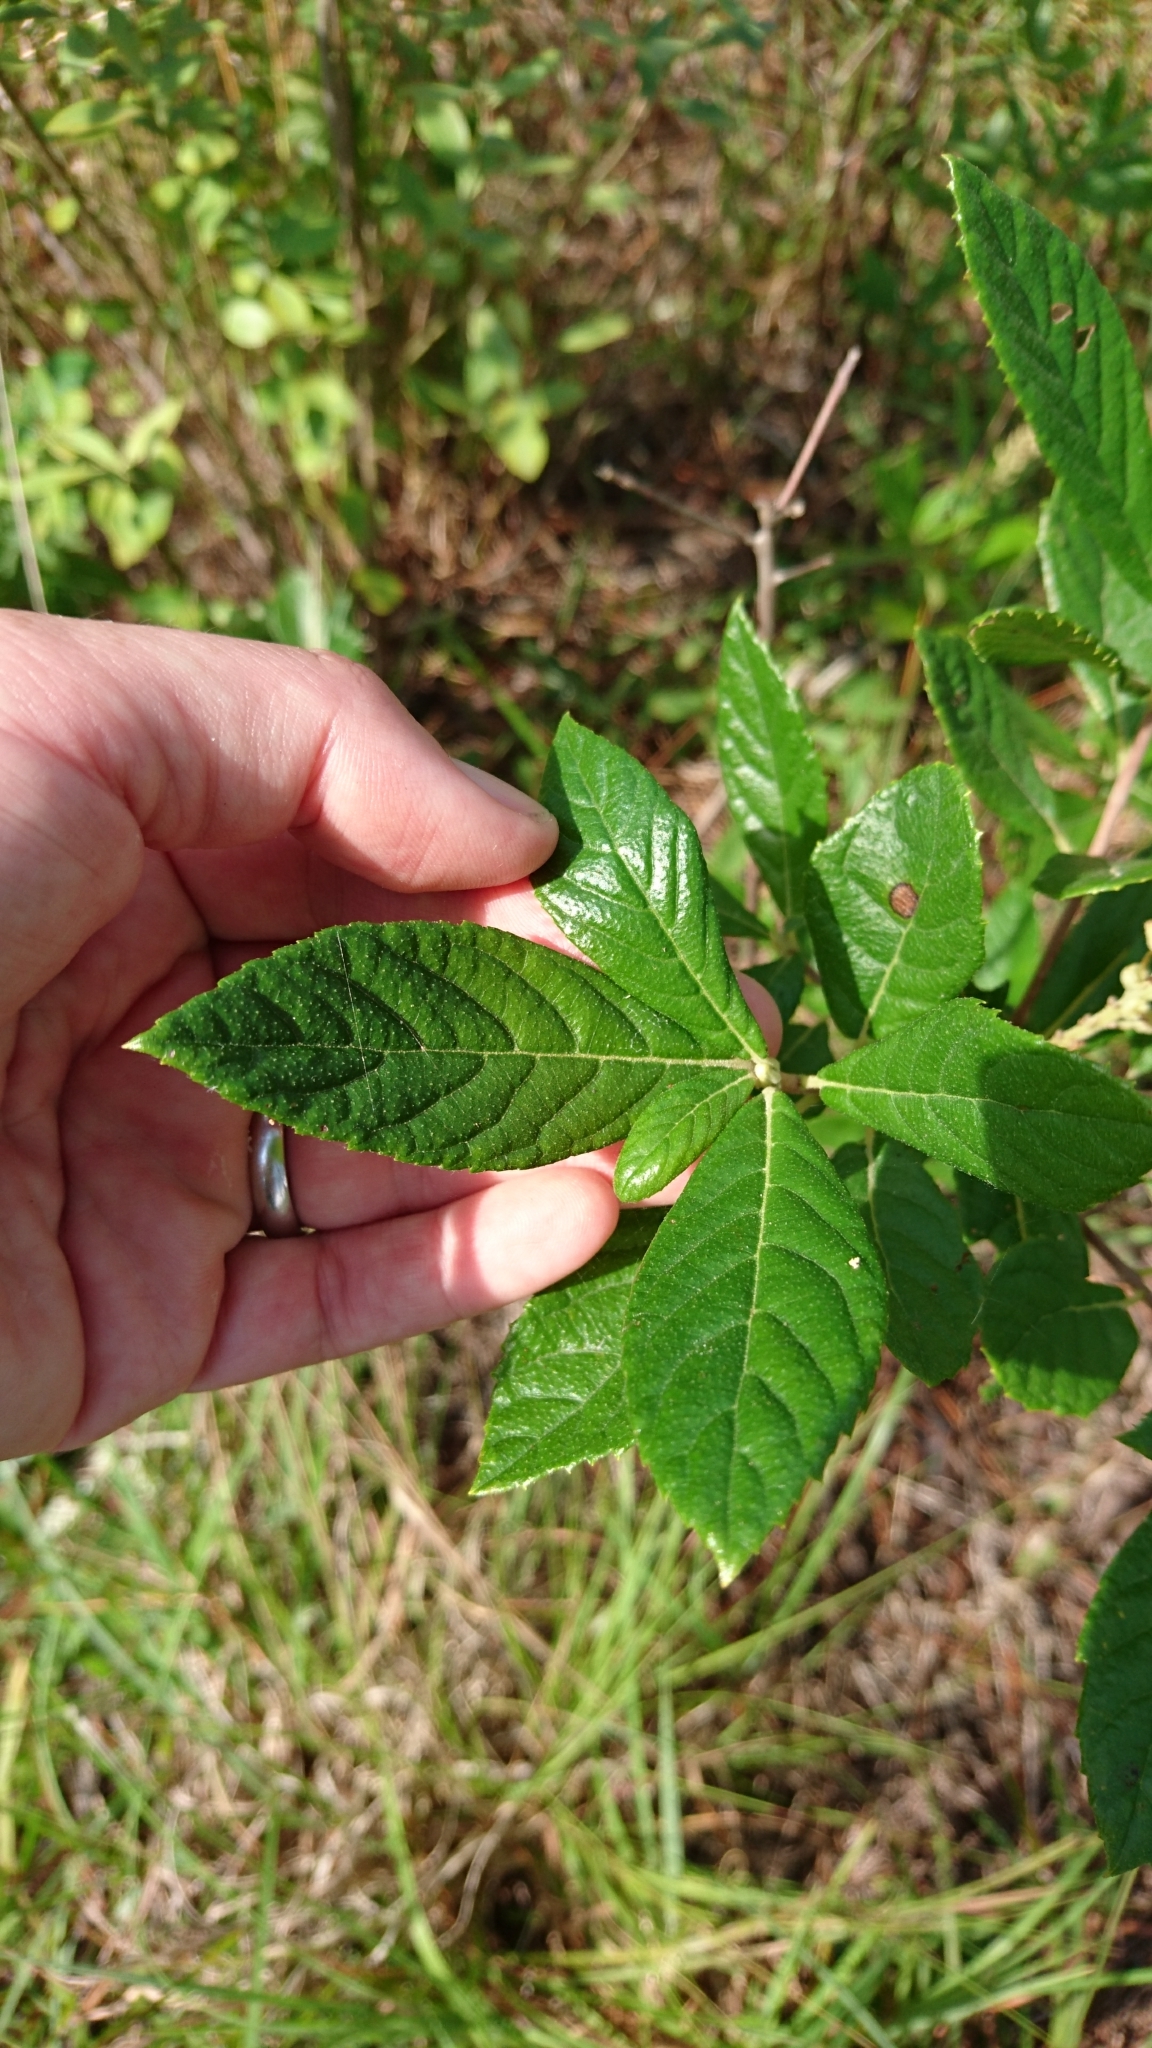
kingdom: Plantae
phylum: Tracheophyta
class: Magnoliopsida
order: Ericales
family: Clethraceae
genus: Clethra
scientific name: Clethra alnifolia
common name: Sweet pepperbush
